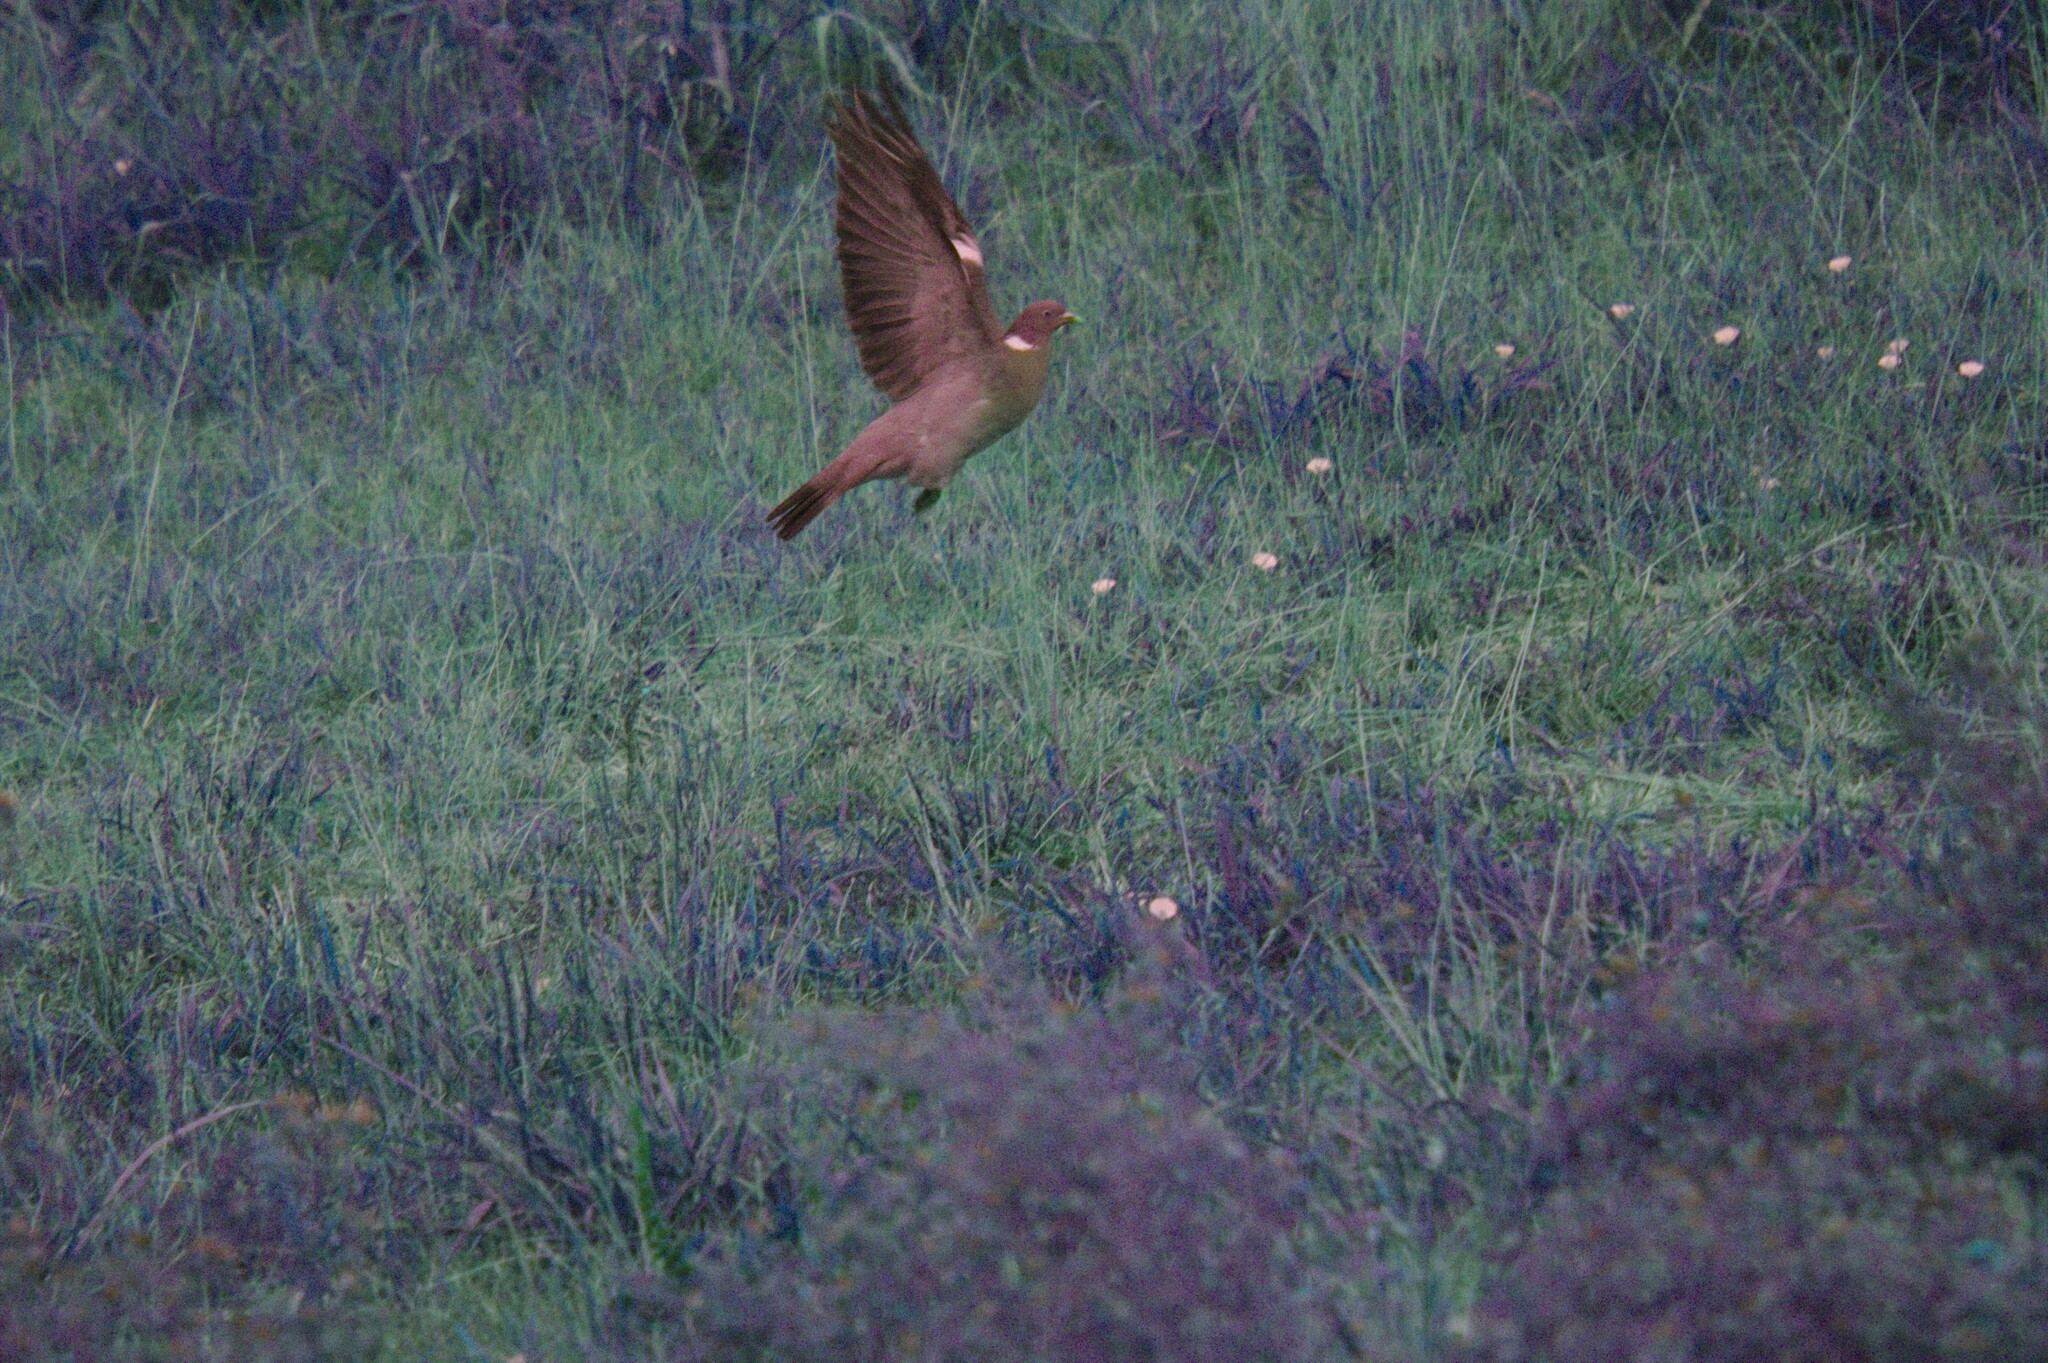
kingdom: Animalia
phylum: Chordata
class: Aves
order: Columbiformes
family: Columbidae
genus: Columba
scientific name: Columba palumbus
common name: Common wood pigeon
